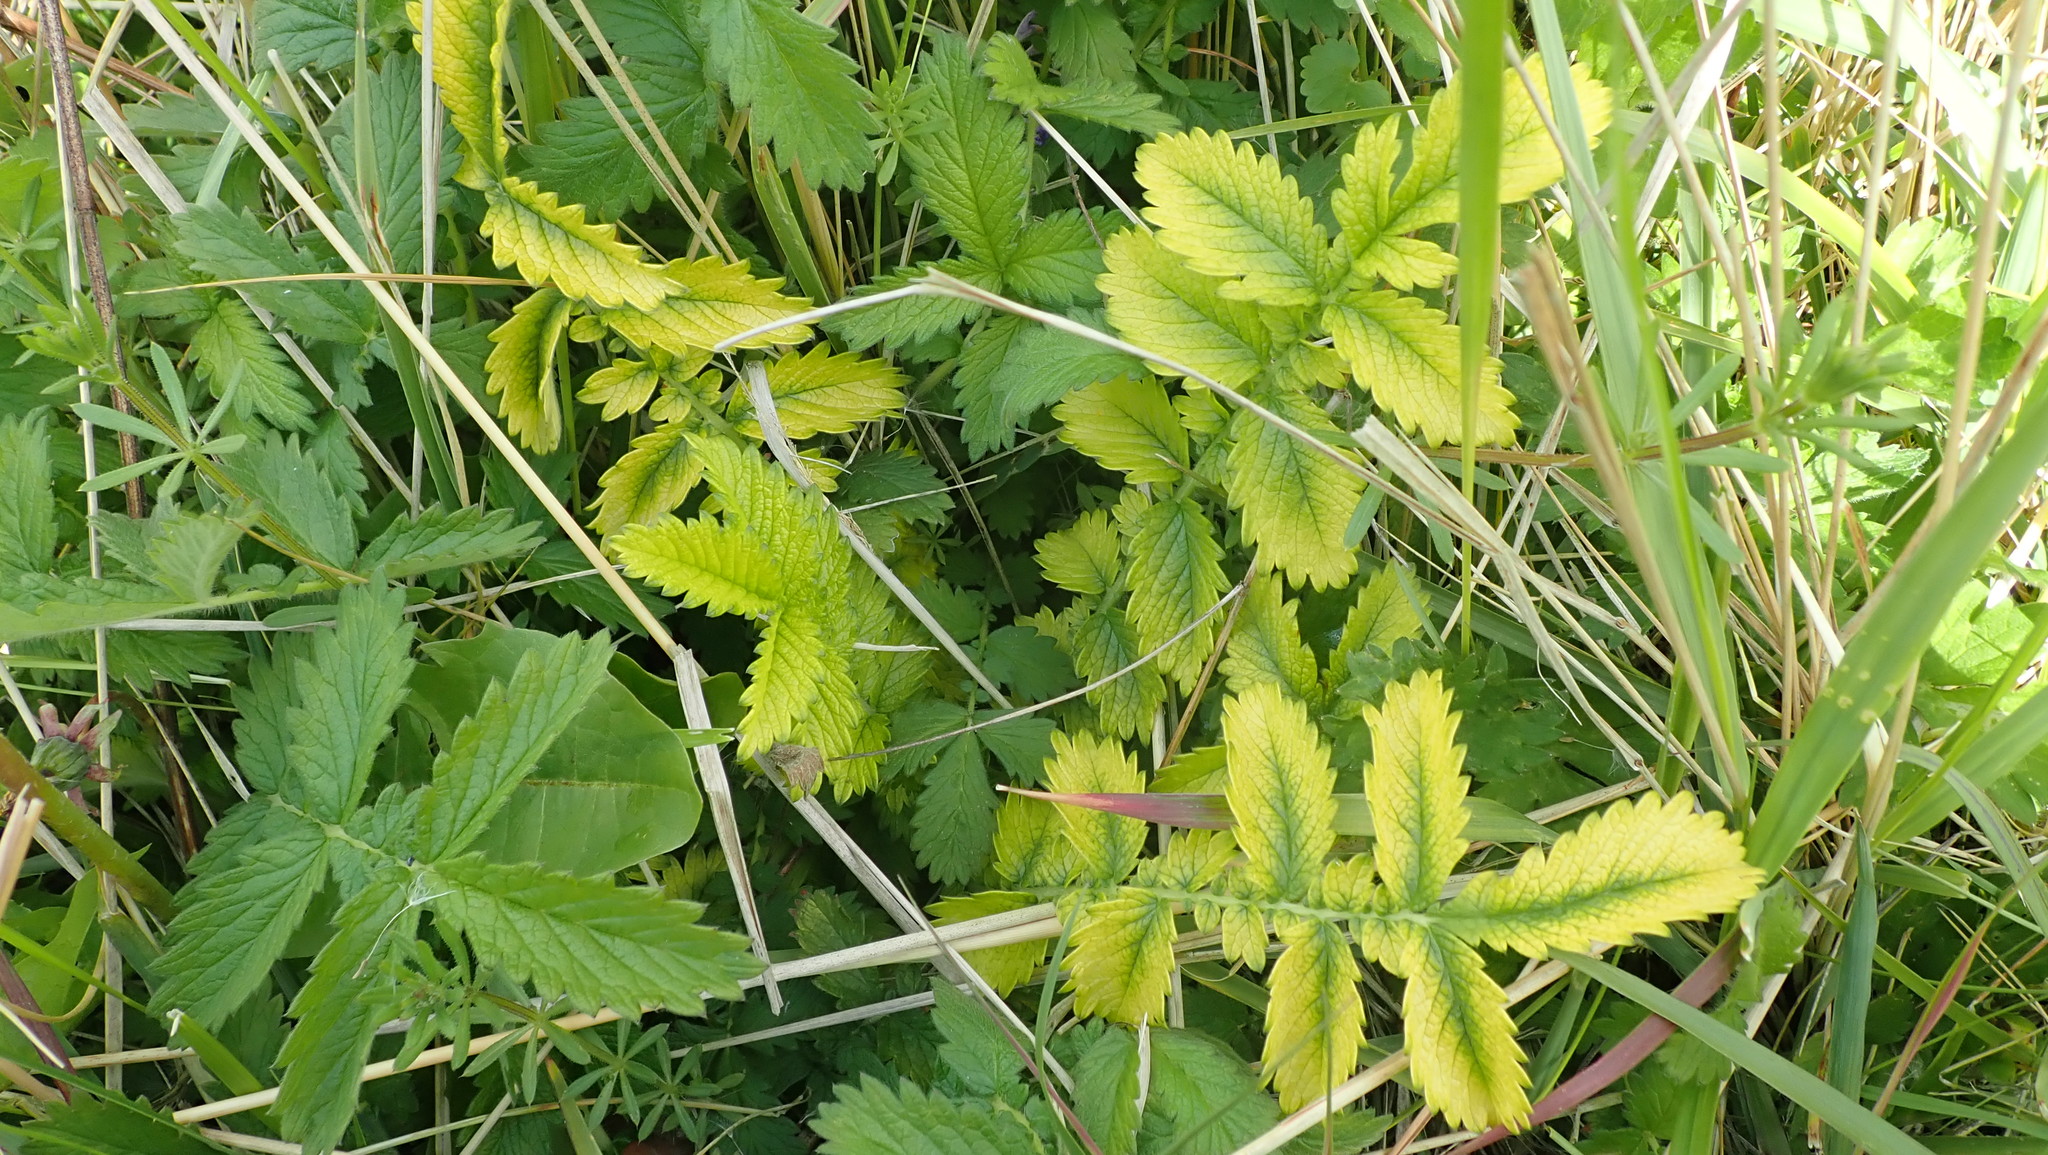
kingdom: Plantae
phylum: Tracheophyta
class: Magnoliopsida
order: Rosales
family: Rosaceae
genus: Agrimonia
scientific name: Agrimonia eupatoria
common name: Agrimony
